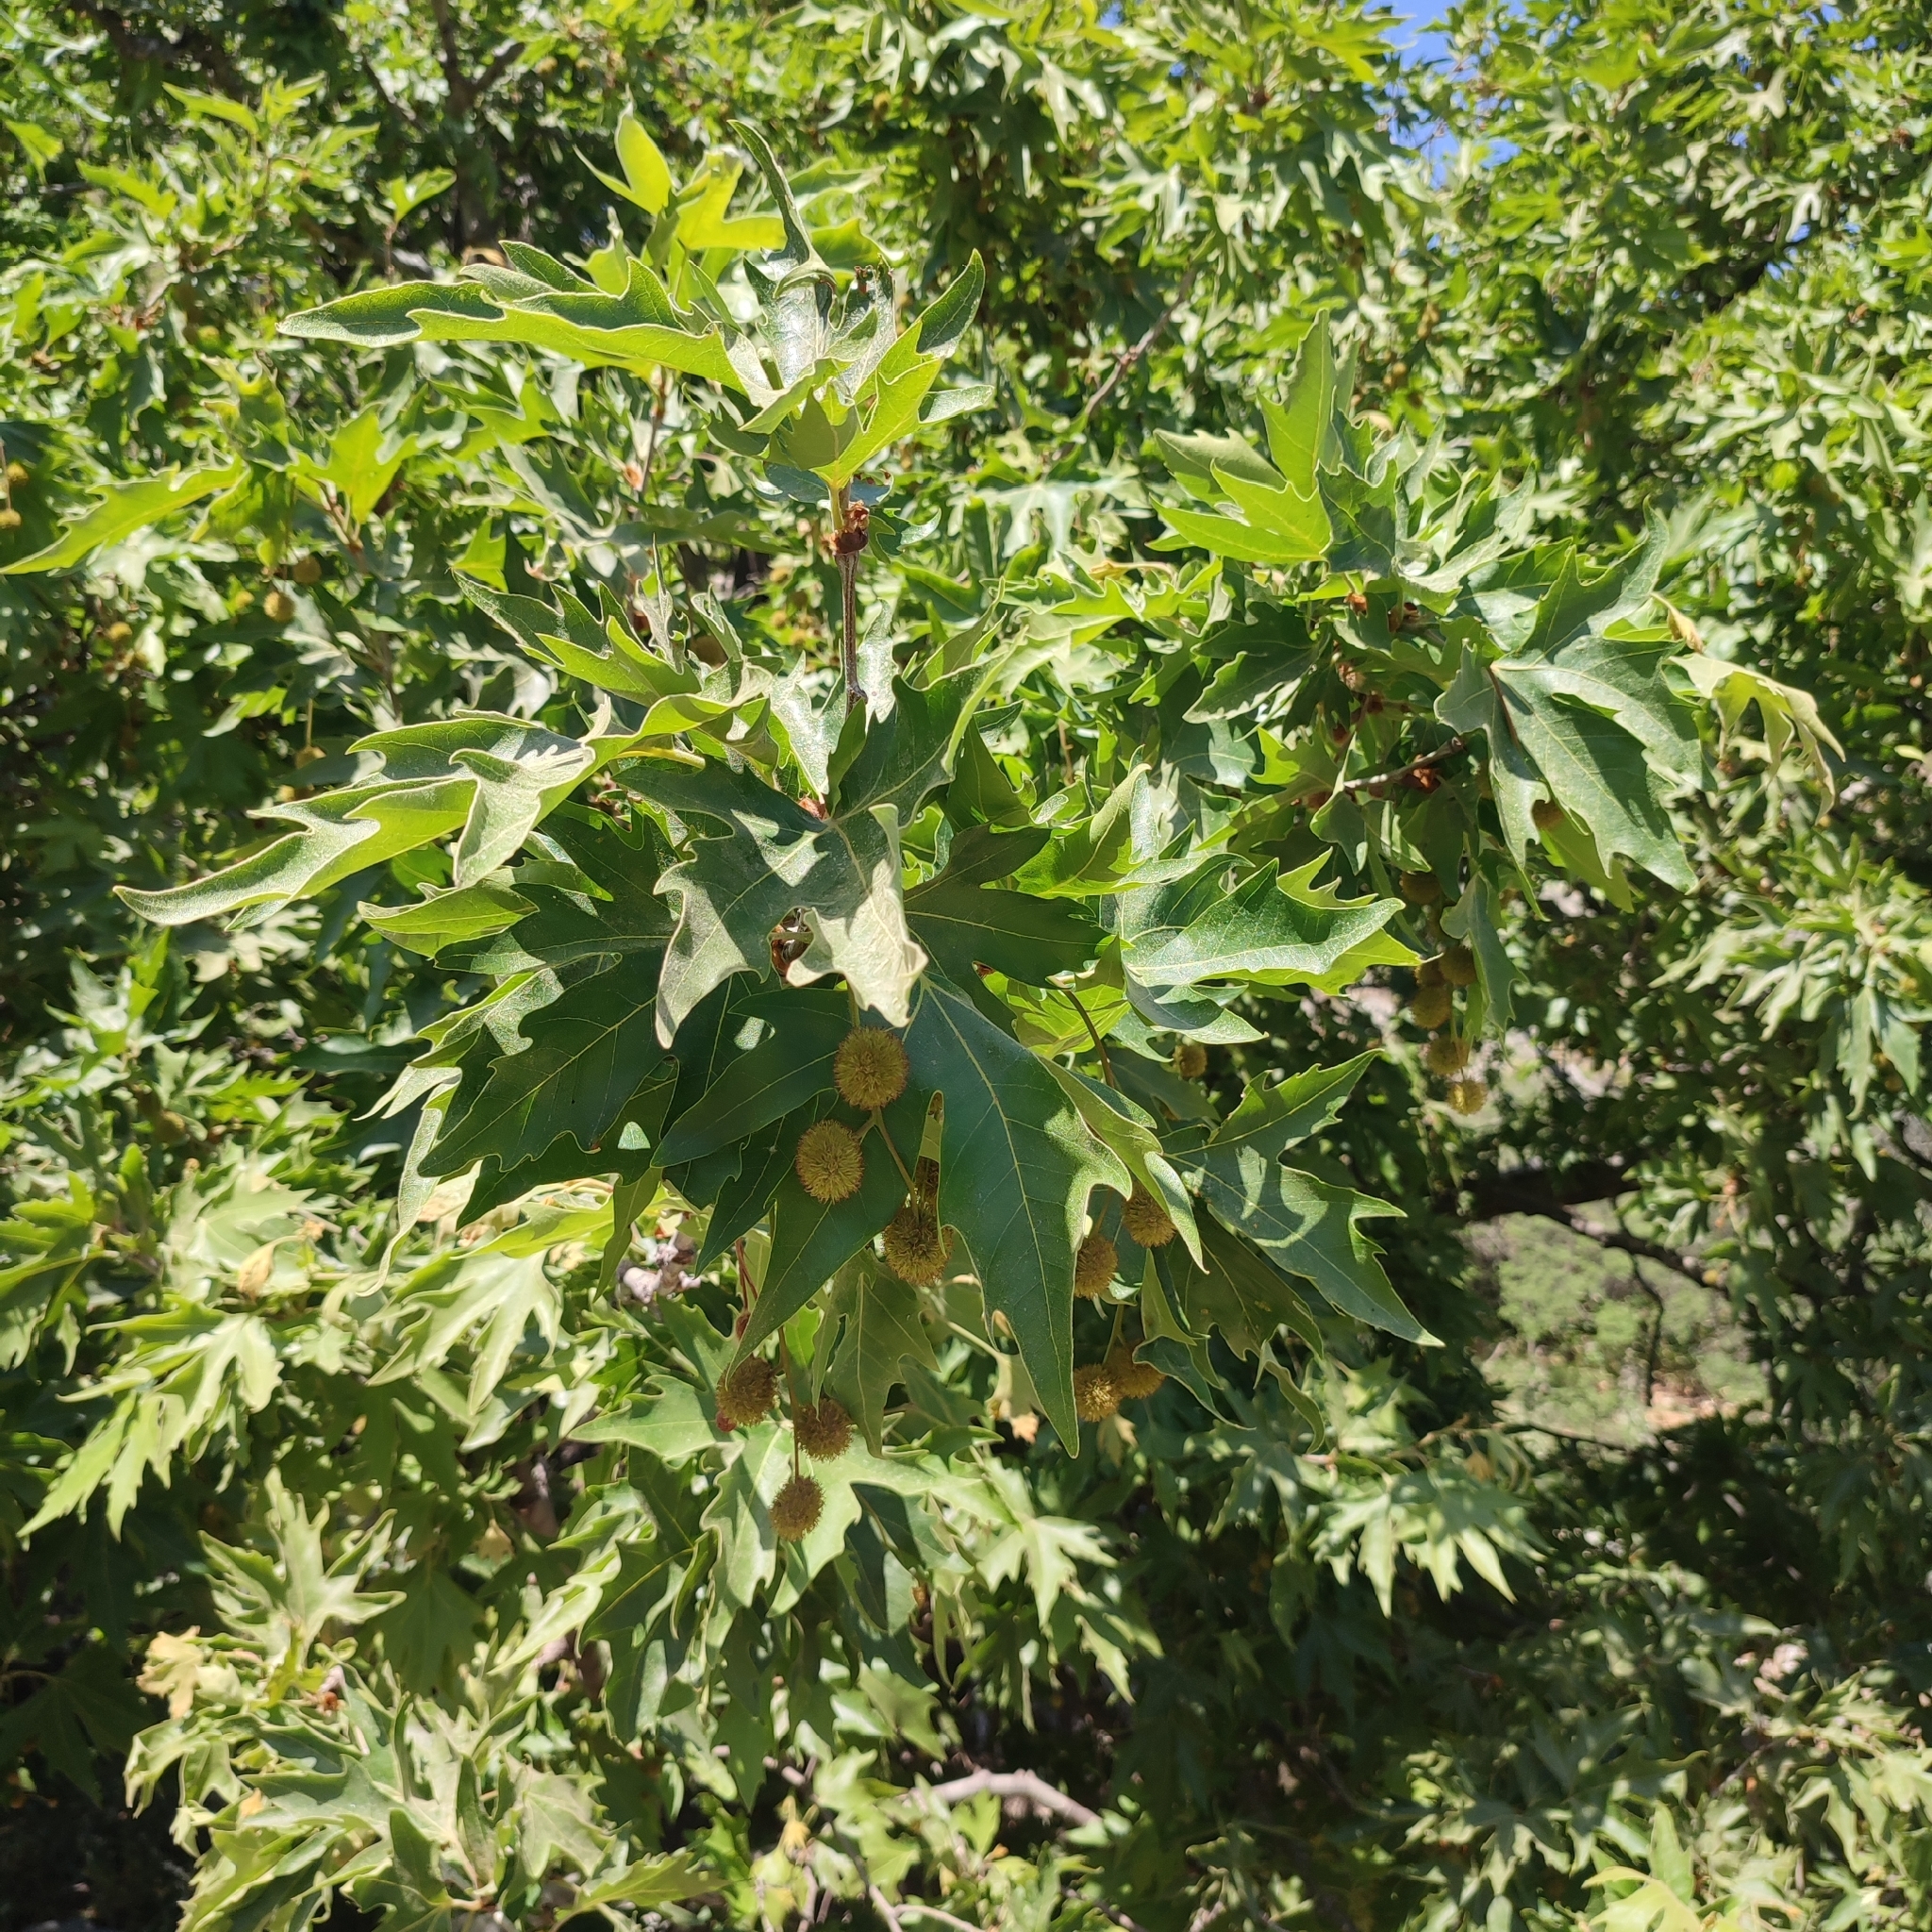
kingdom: Plantae
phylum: Tracheophyta
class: Magnoliopsida
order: Proteales
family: Platanaceae
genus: Platanus
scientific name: Platanus orientalis
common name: Oriental plane
